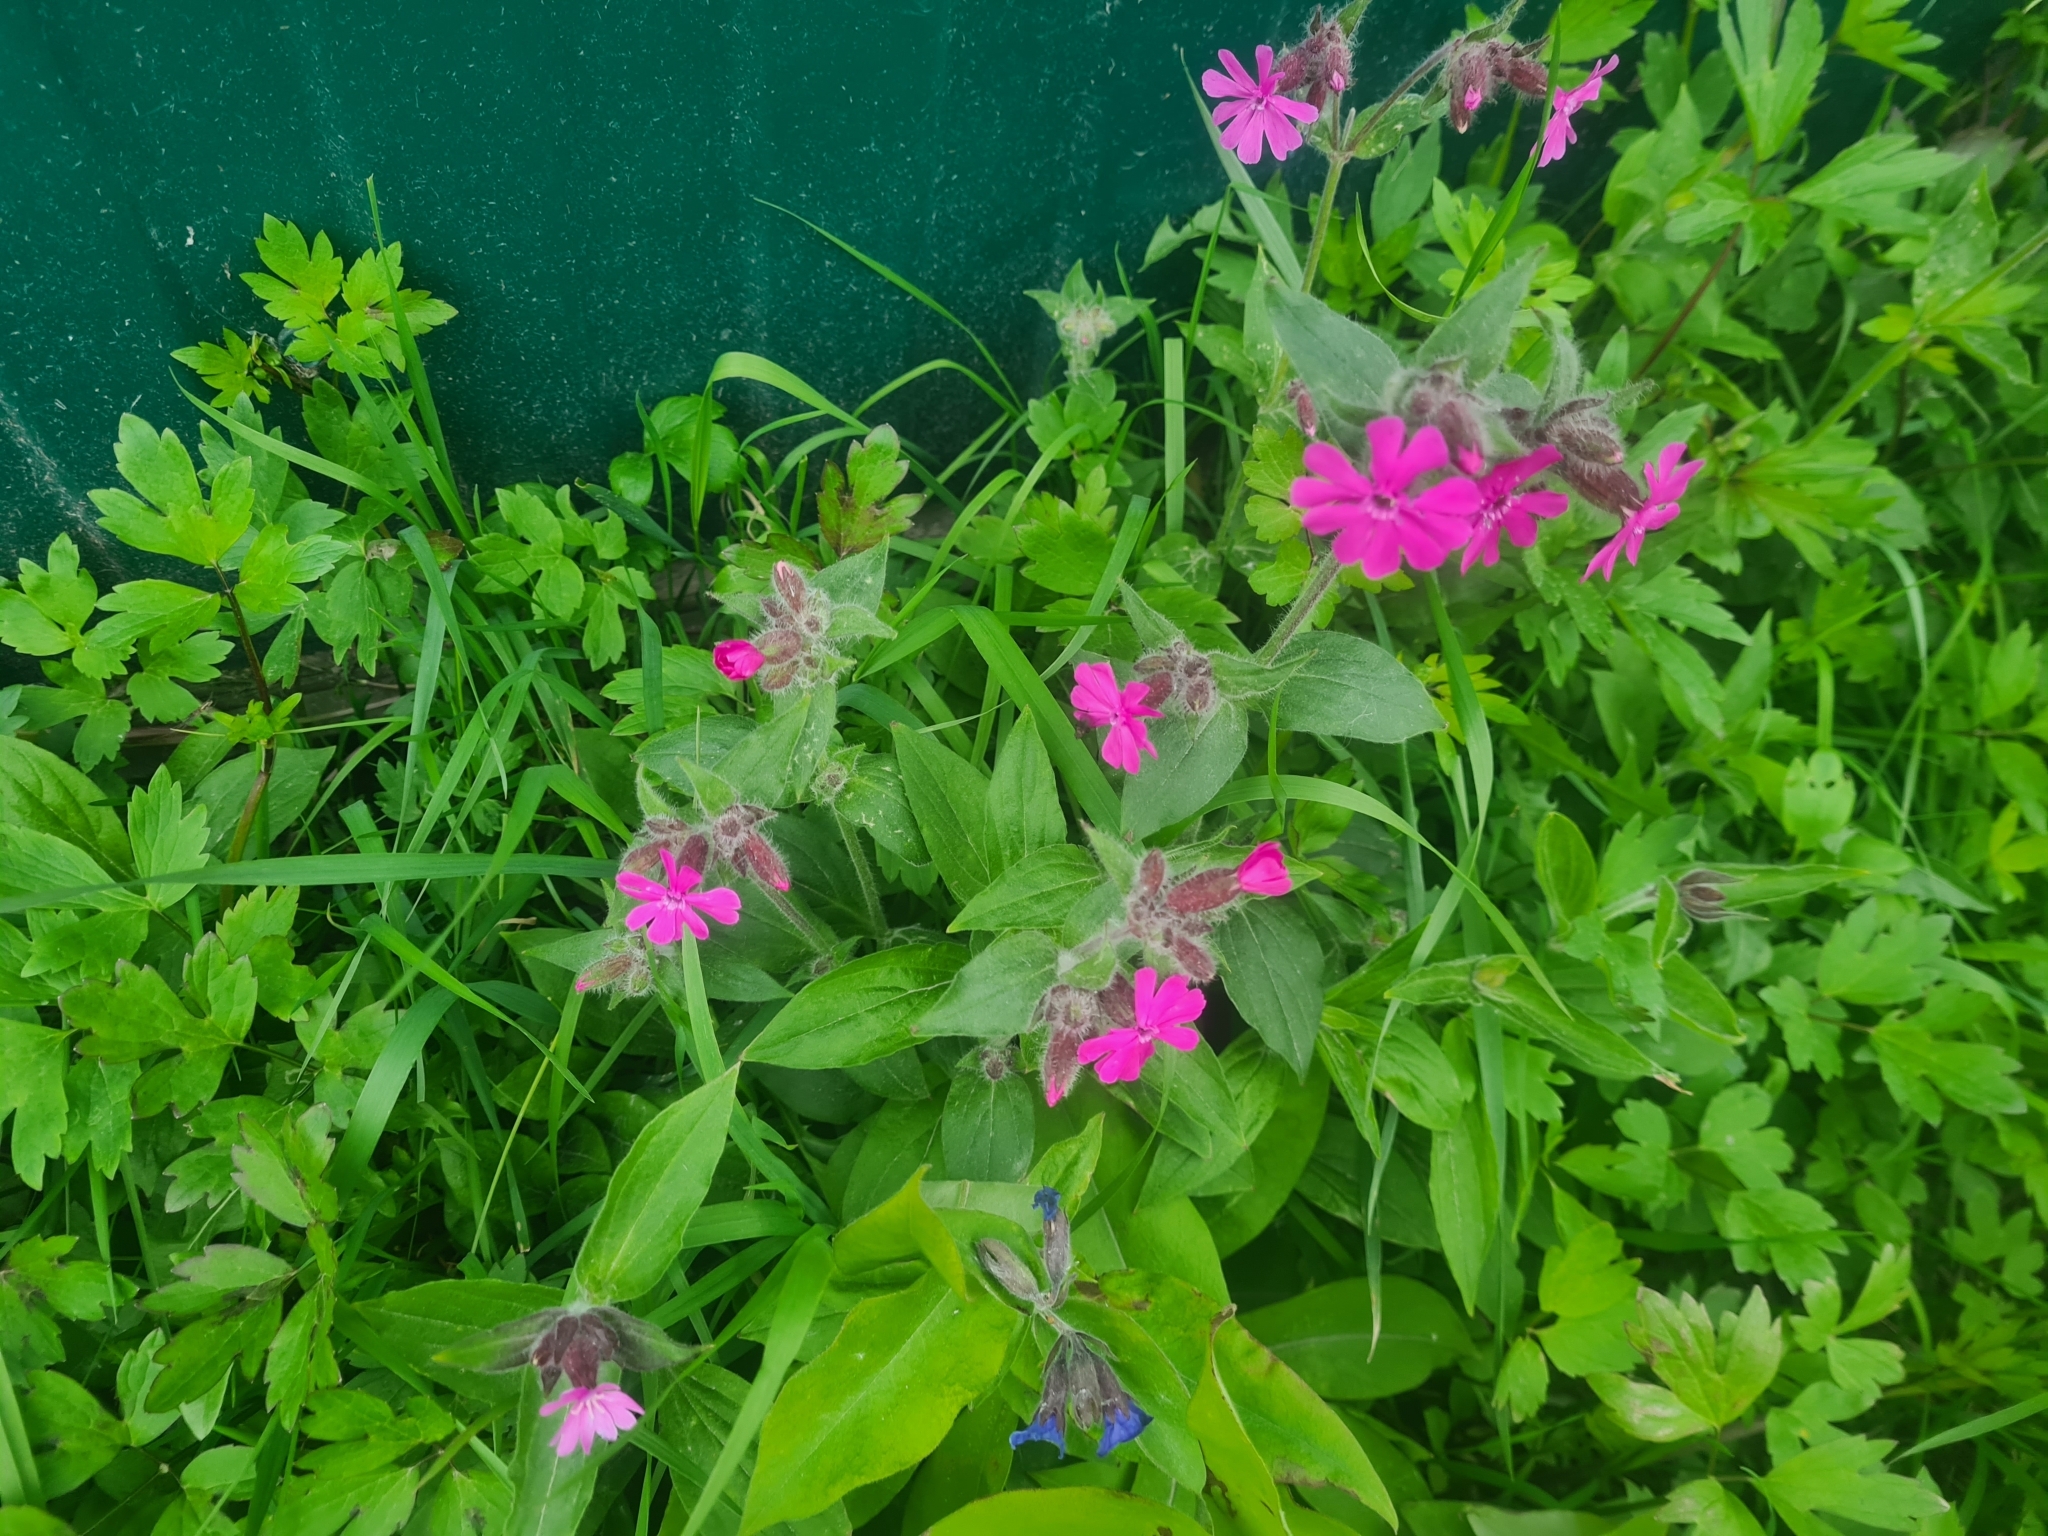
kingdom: Plantae
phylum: Tracheophyta
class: Magnoliopsida
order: Caryophyllales
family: Caryophyllaceae
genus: Silene
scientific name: Silene dioica
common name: Red campion
